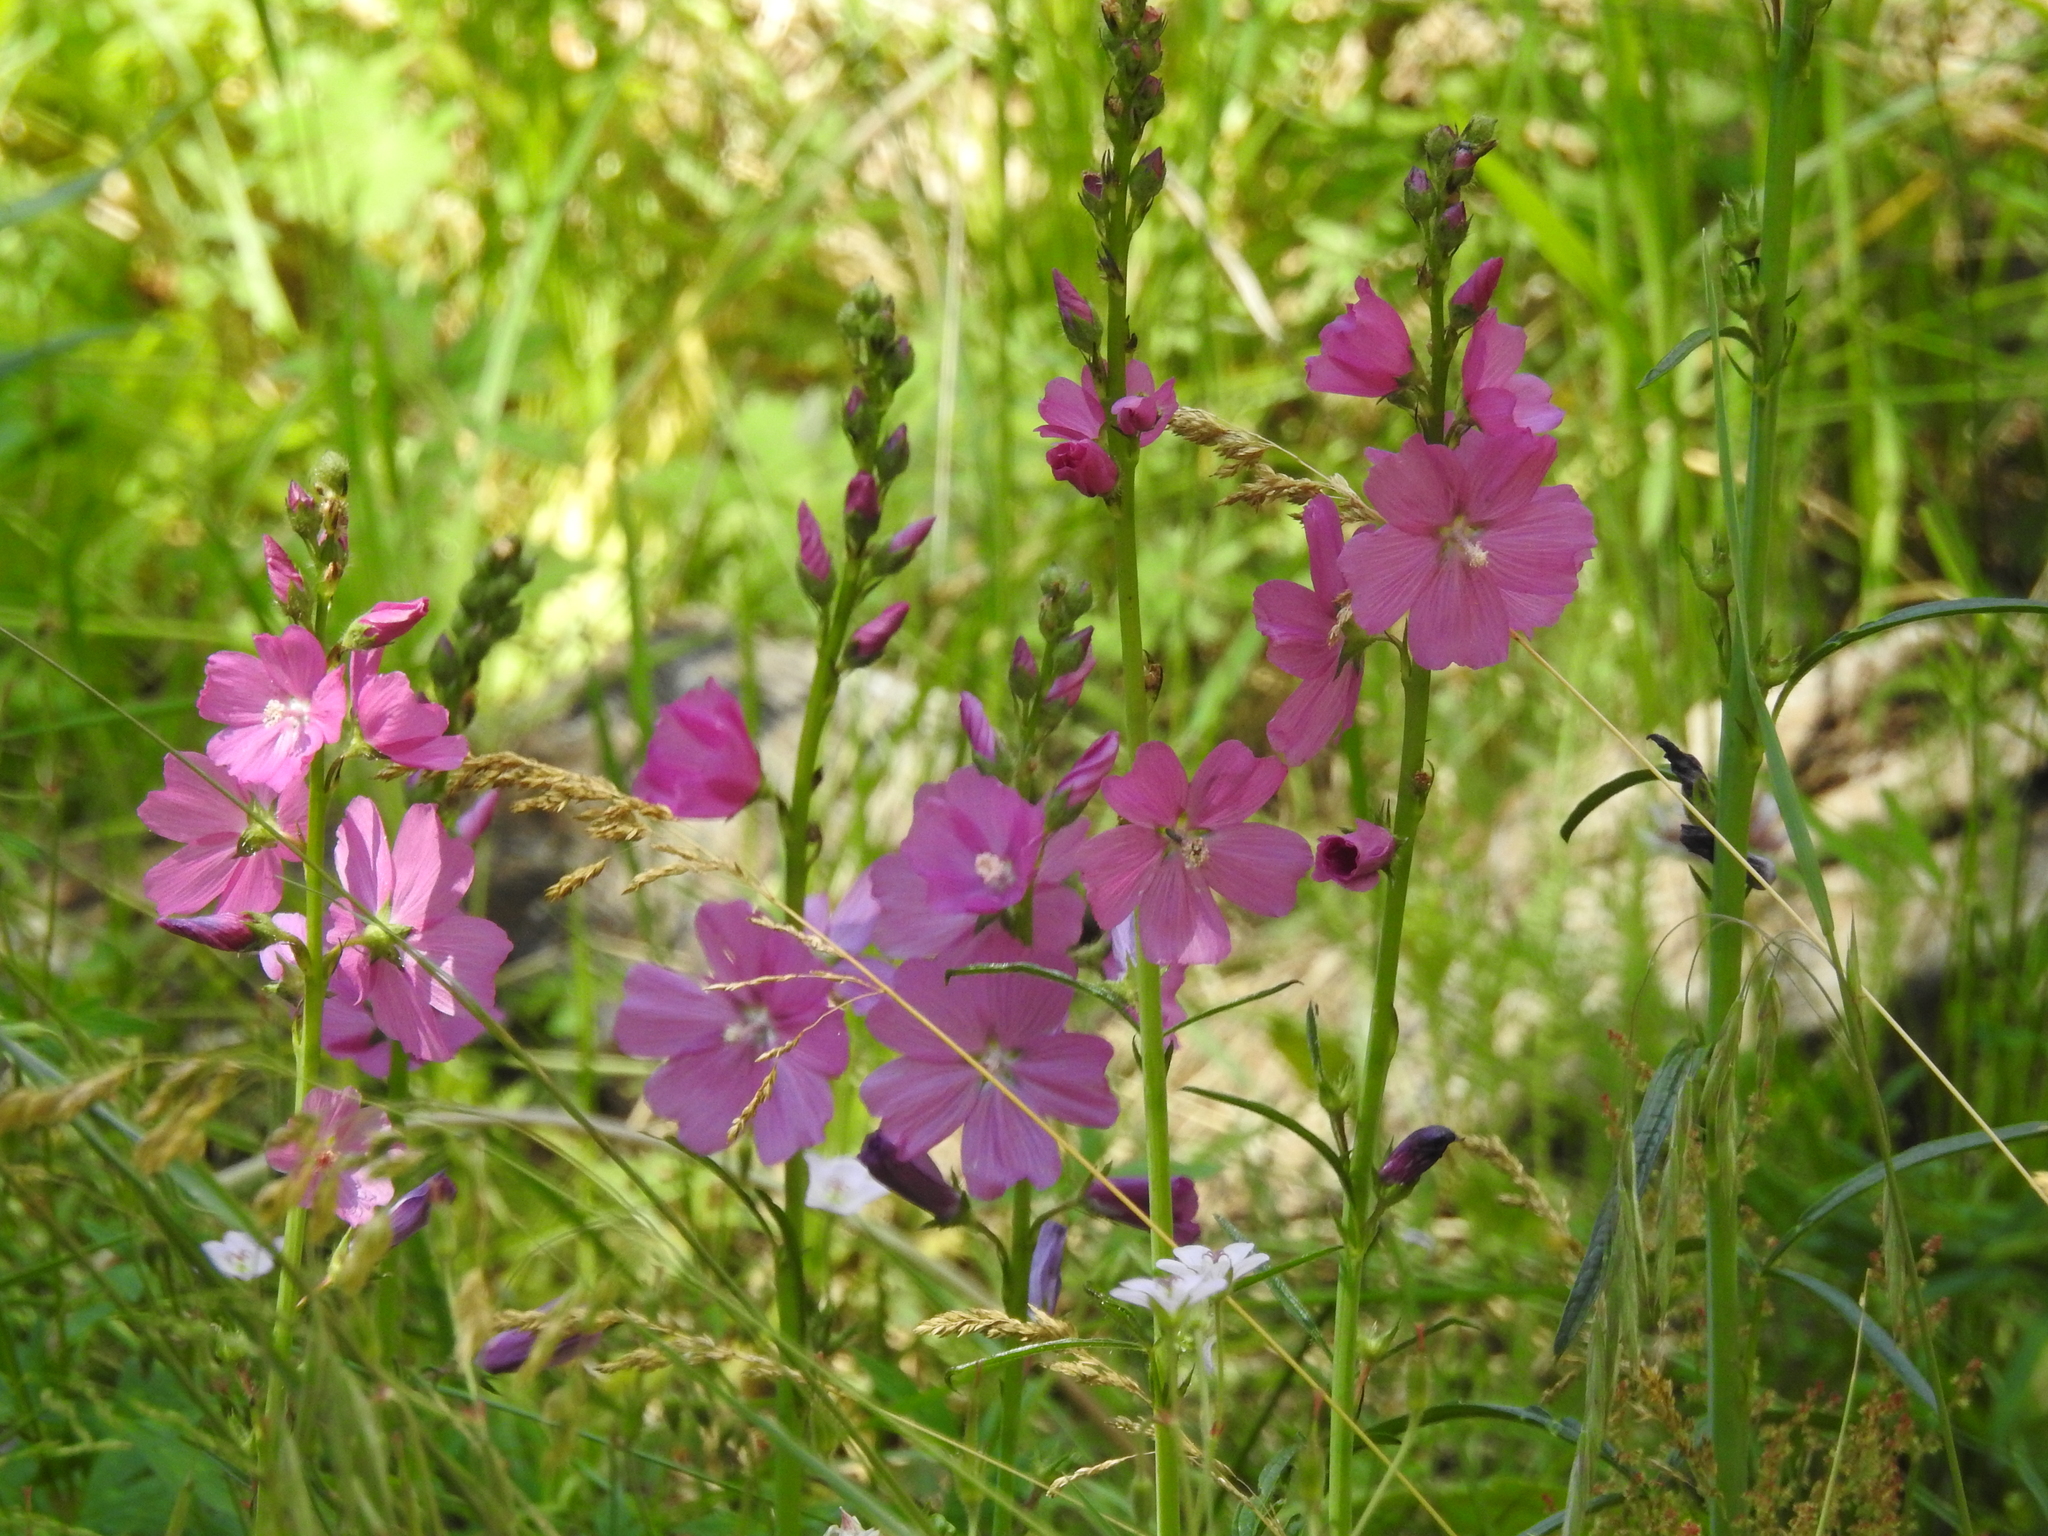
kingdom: Plantae
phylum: Tracheophyta
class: Magnoliopsida
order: Malvales
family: Malvaceae
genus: Sidalcea
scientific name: Sidalcea neomexicana
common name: New mexico checker
